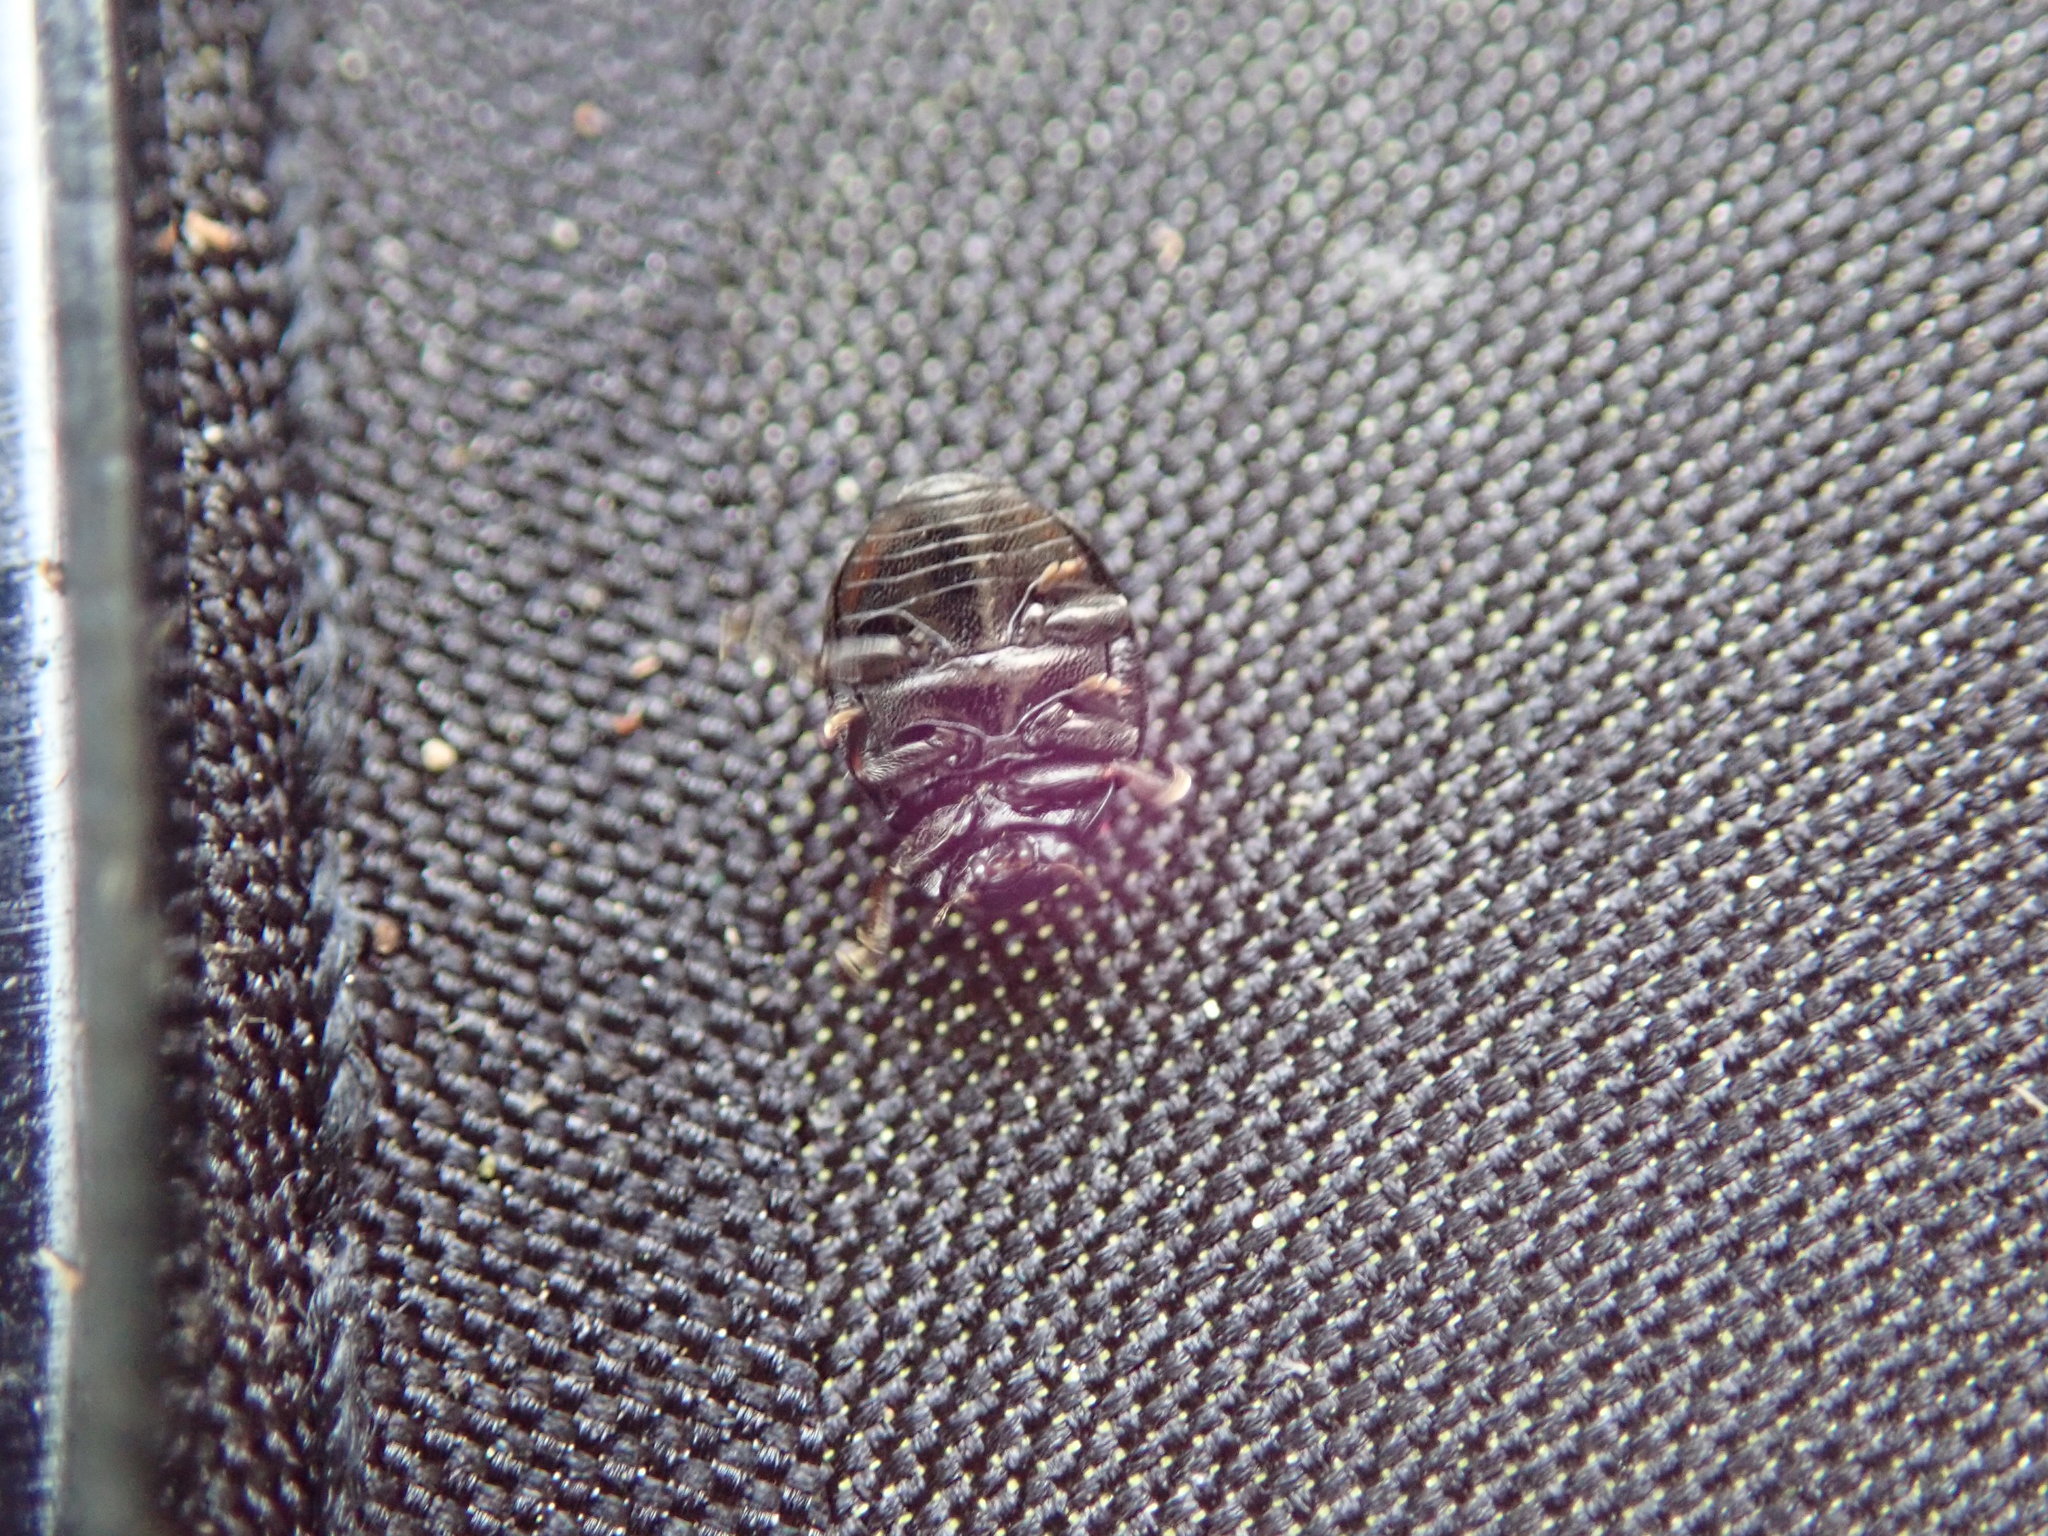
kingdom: Animalia
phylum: Arthropoda
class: Insecta
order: Coleoptera
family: Coccinellidae
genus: Hyperaspis
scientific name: Hyperaspis signata
